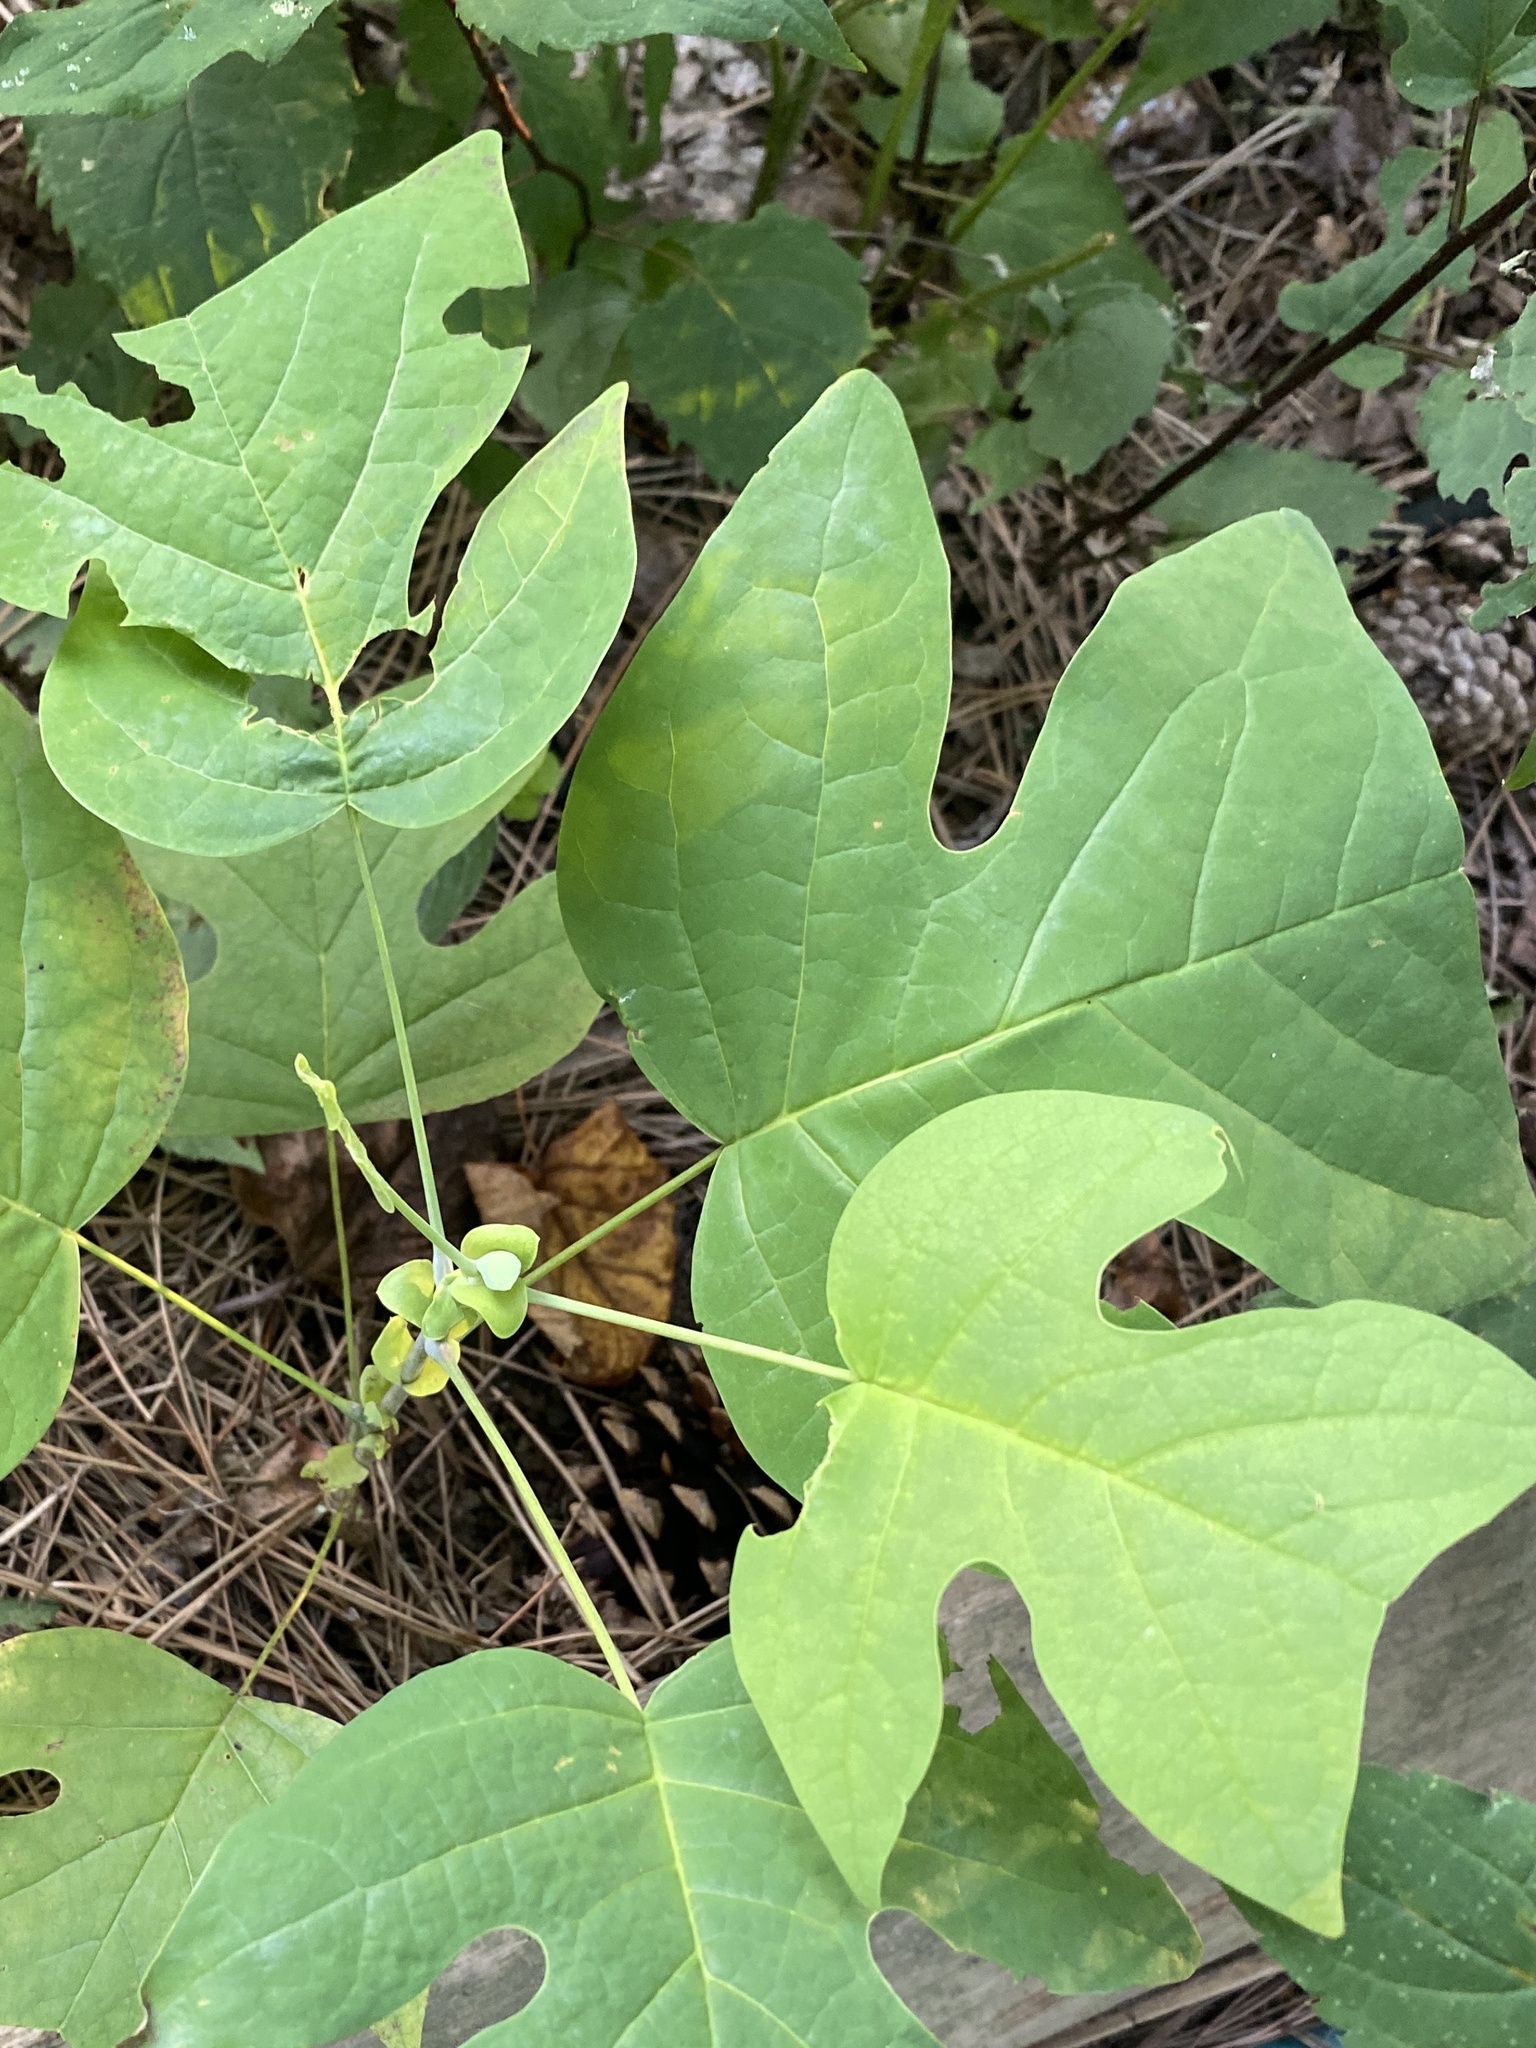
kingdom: Plantae
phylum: Tracheophyta
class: Magnoliopsida
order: Magnoliales
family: Magnoliaceae
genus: Liriodendron
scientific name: Liriodendron tulipifera
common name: Tulip tree
